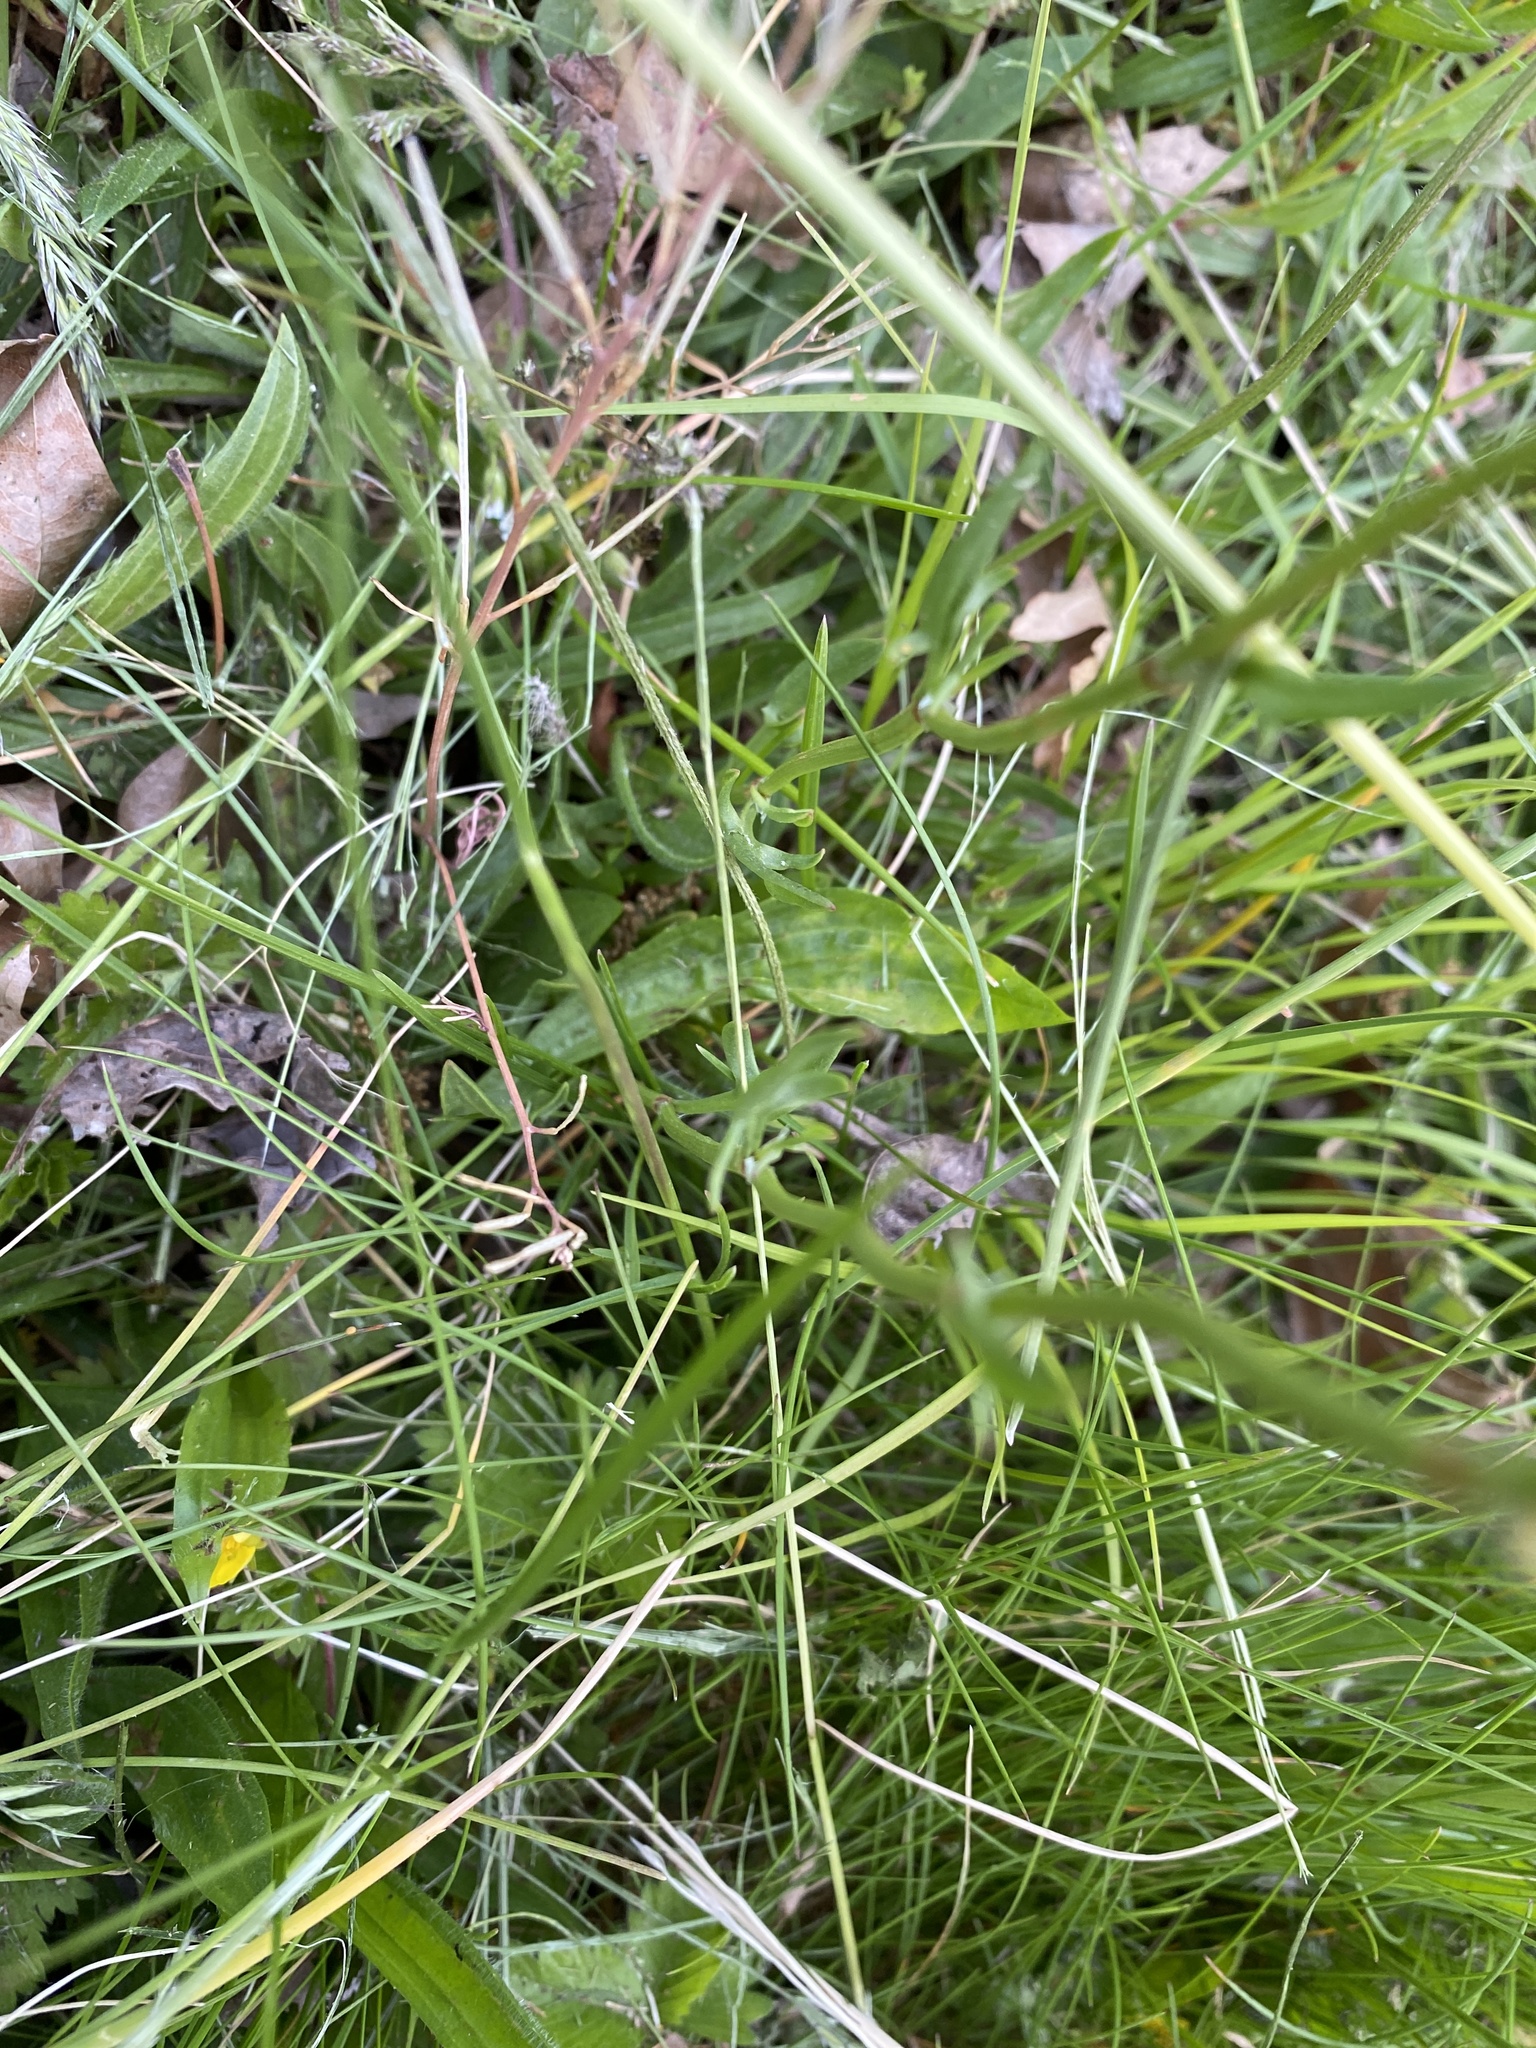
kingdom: Plantae
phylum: Tracheophyta
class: Magnoliopsida
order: Caryophyllales
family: Polygonaceae
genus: Rumex
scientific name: Rumex acetosella
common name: Common sheep sorrel
